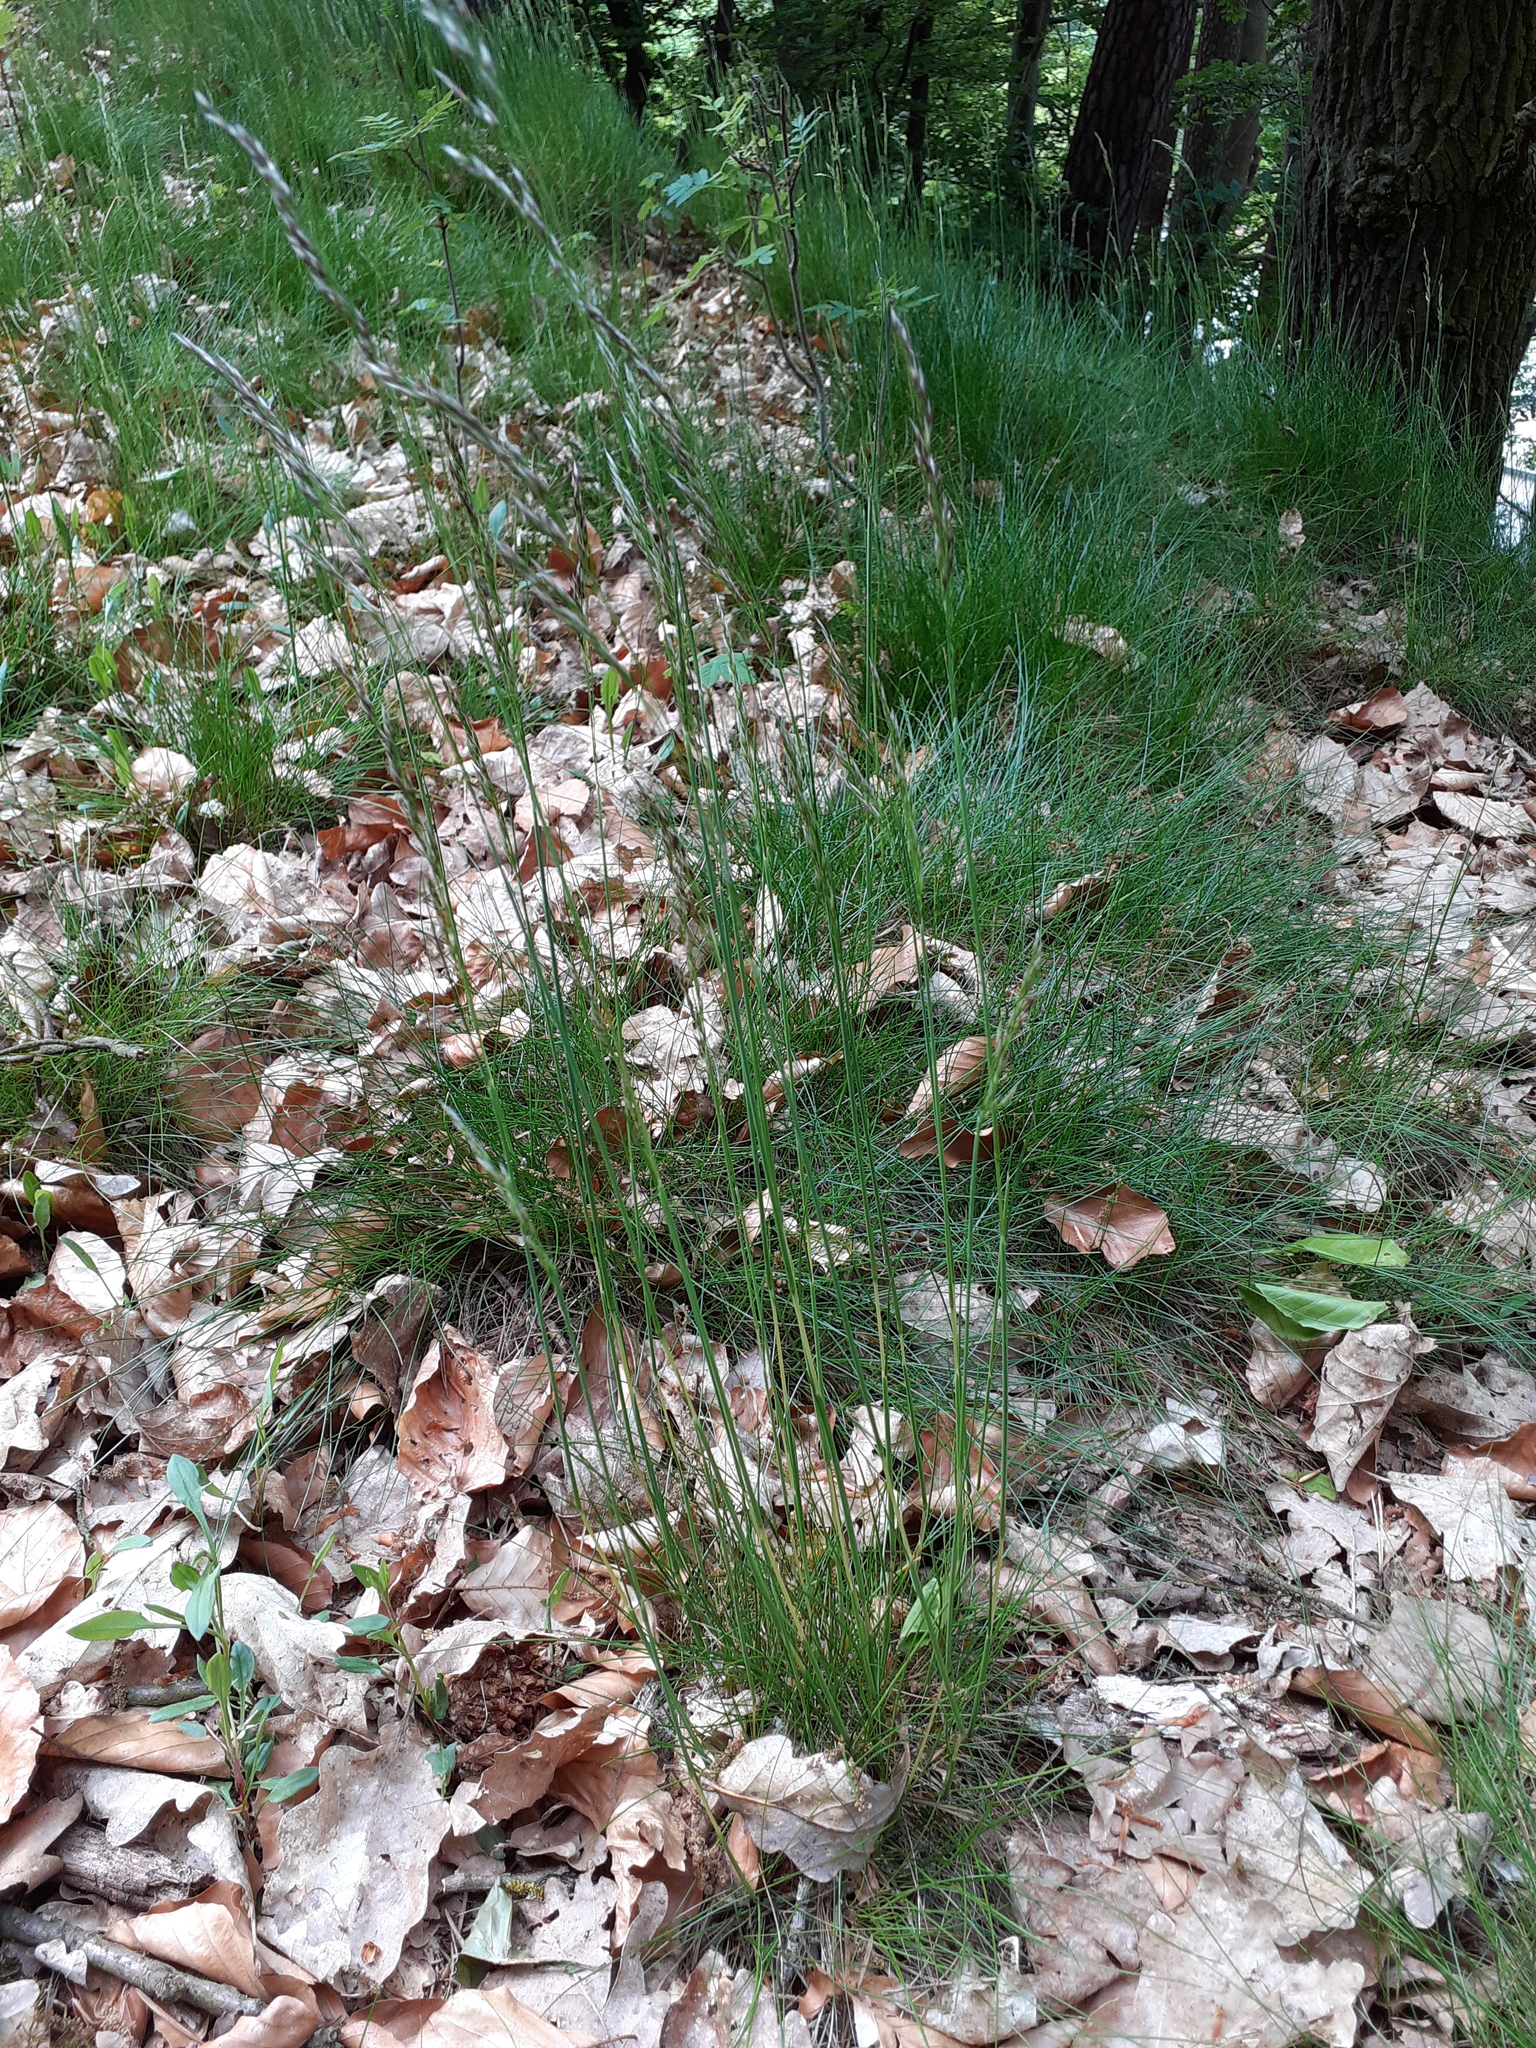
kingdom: Plantae
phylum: Tracheophyta
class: Liliopsida
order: Poales
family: Poaceae
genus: Avenella
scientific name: Avenella flexuosa
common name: Wavy hairgrass
